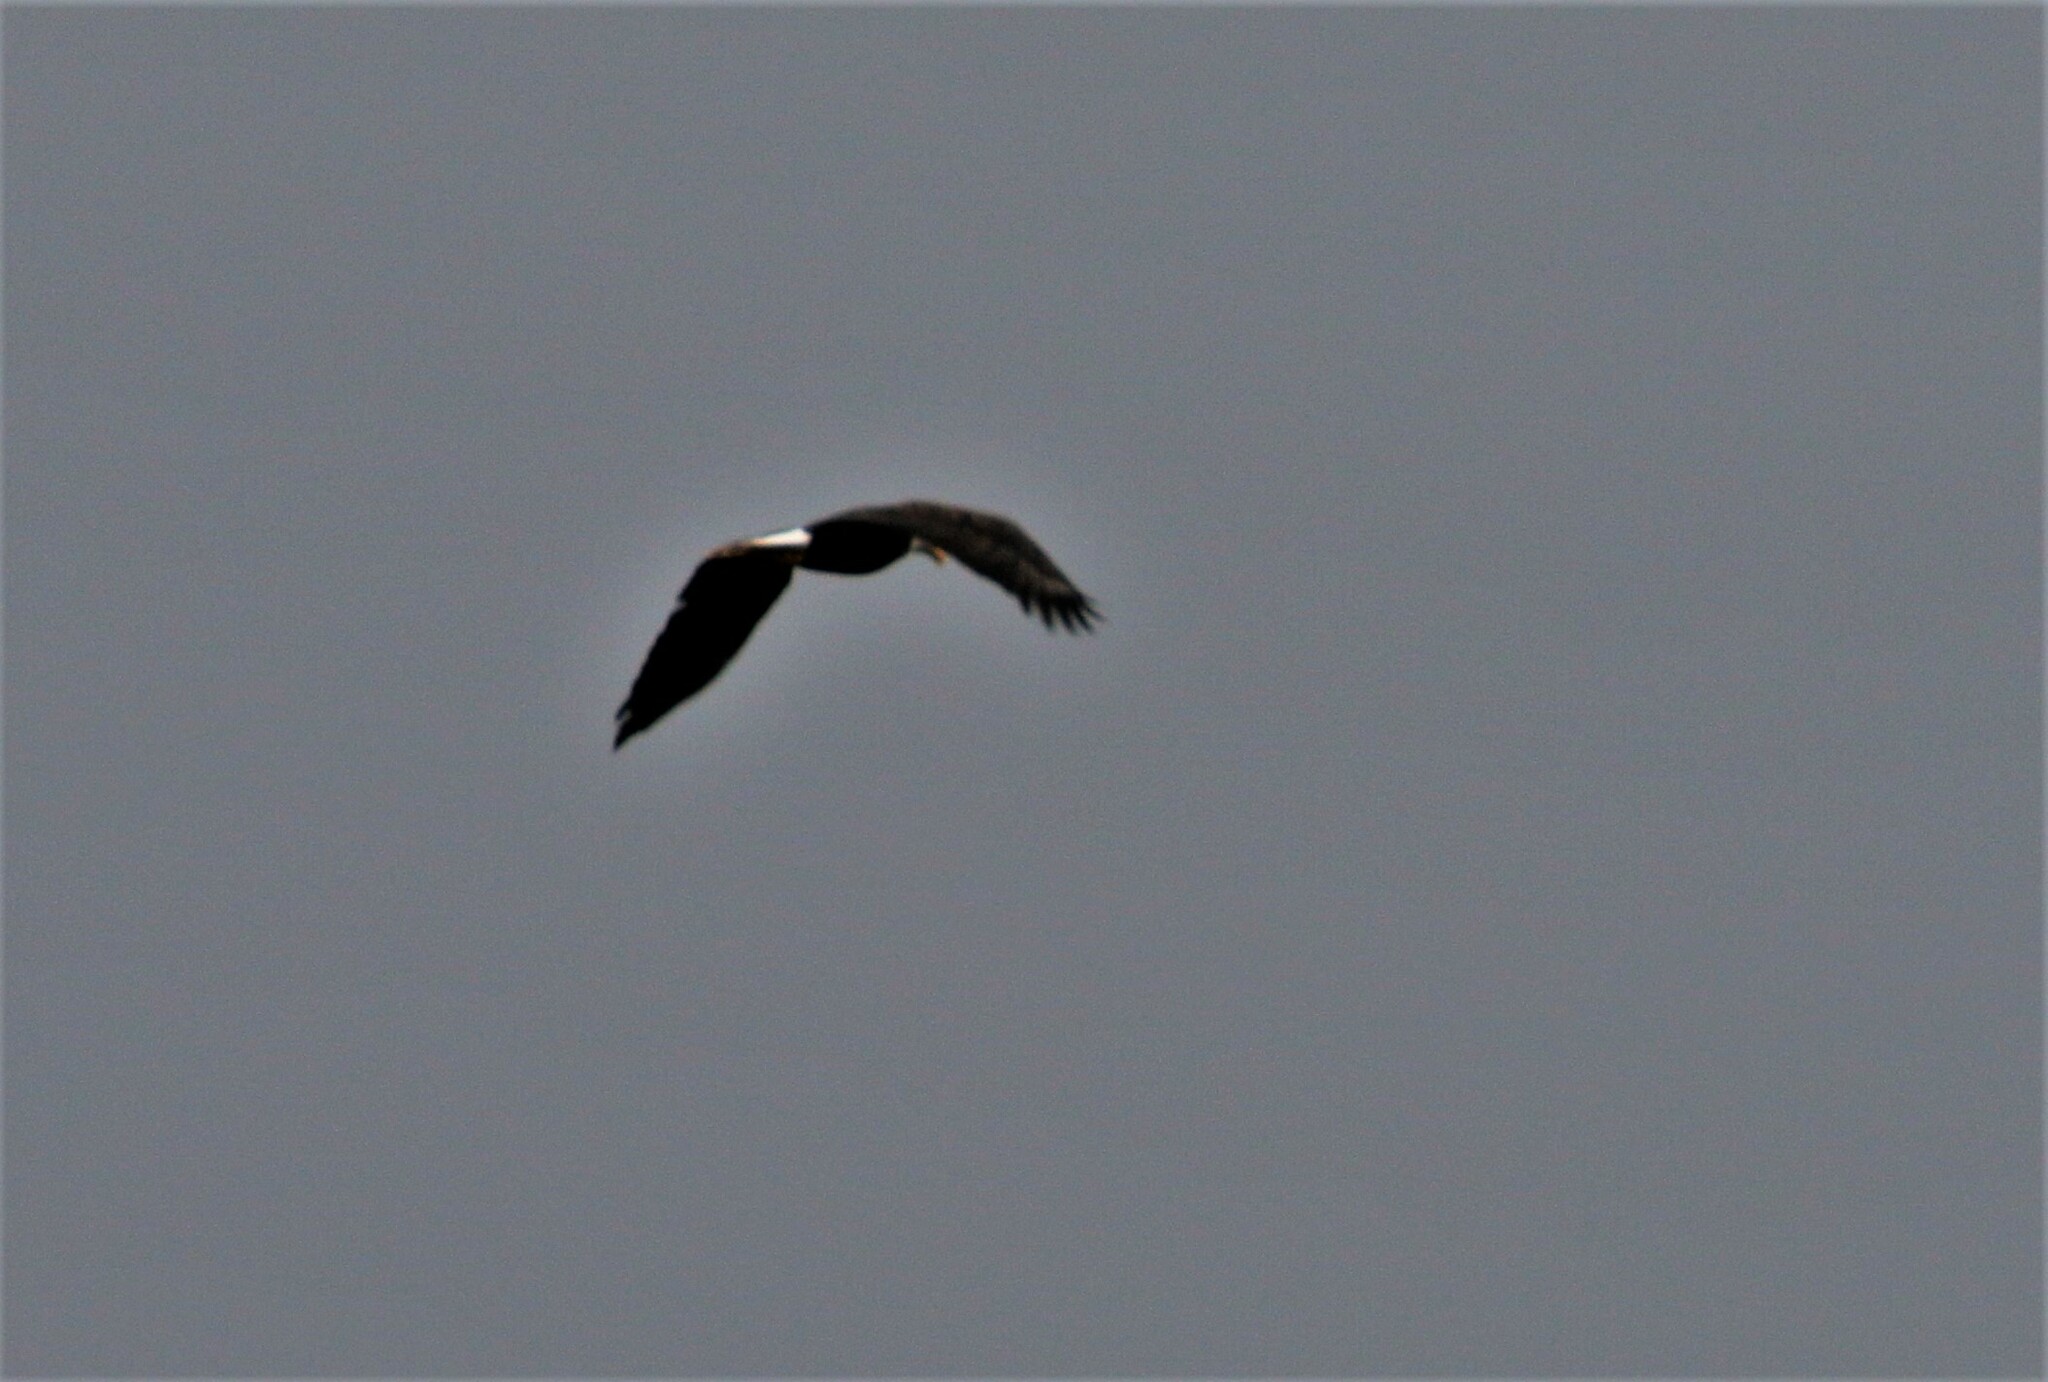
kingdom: Animalia
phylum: Chordata
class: Aves
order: Accipitriformes
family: Accipitridae
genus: Haliaeetus
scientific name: Haliaeetus leucocephalus
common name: Bald eagle
